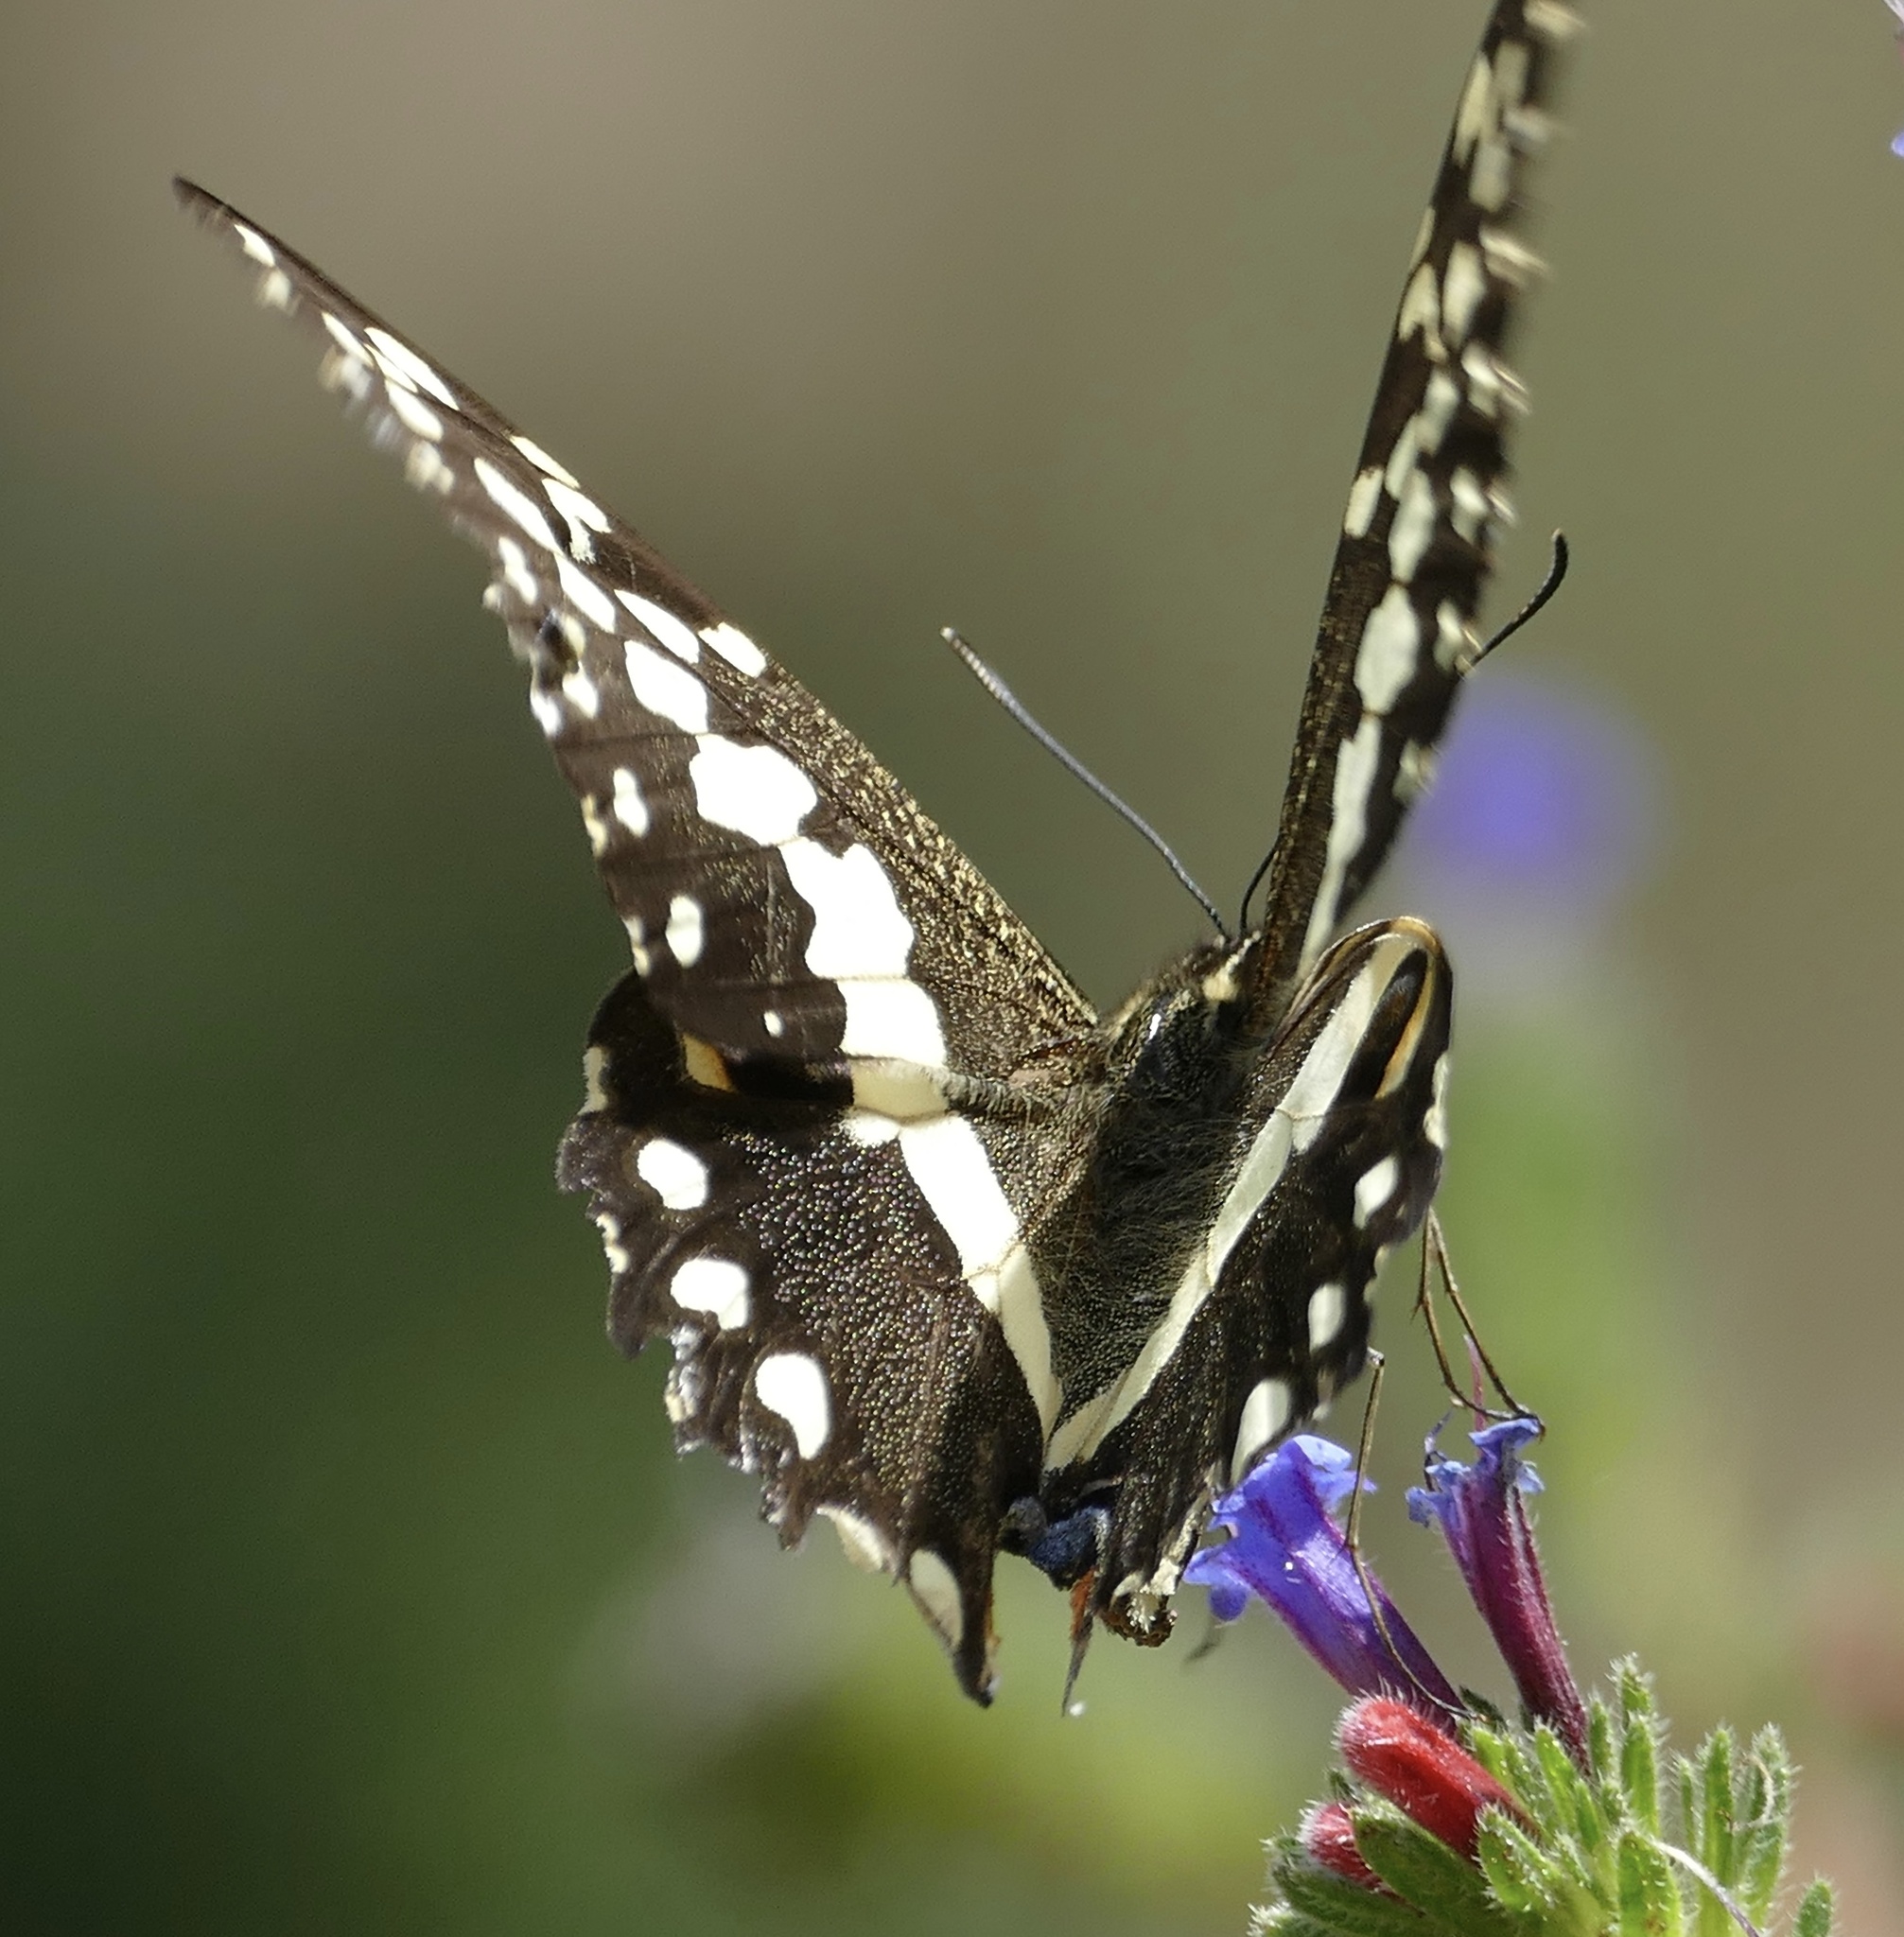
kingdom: Animalia
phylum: Arthropoda
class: Insecta
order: Lepidoptera
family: Papilionidae
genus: Papilio
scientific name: Papilio demodocus
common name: Christmas butterfly
